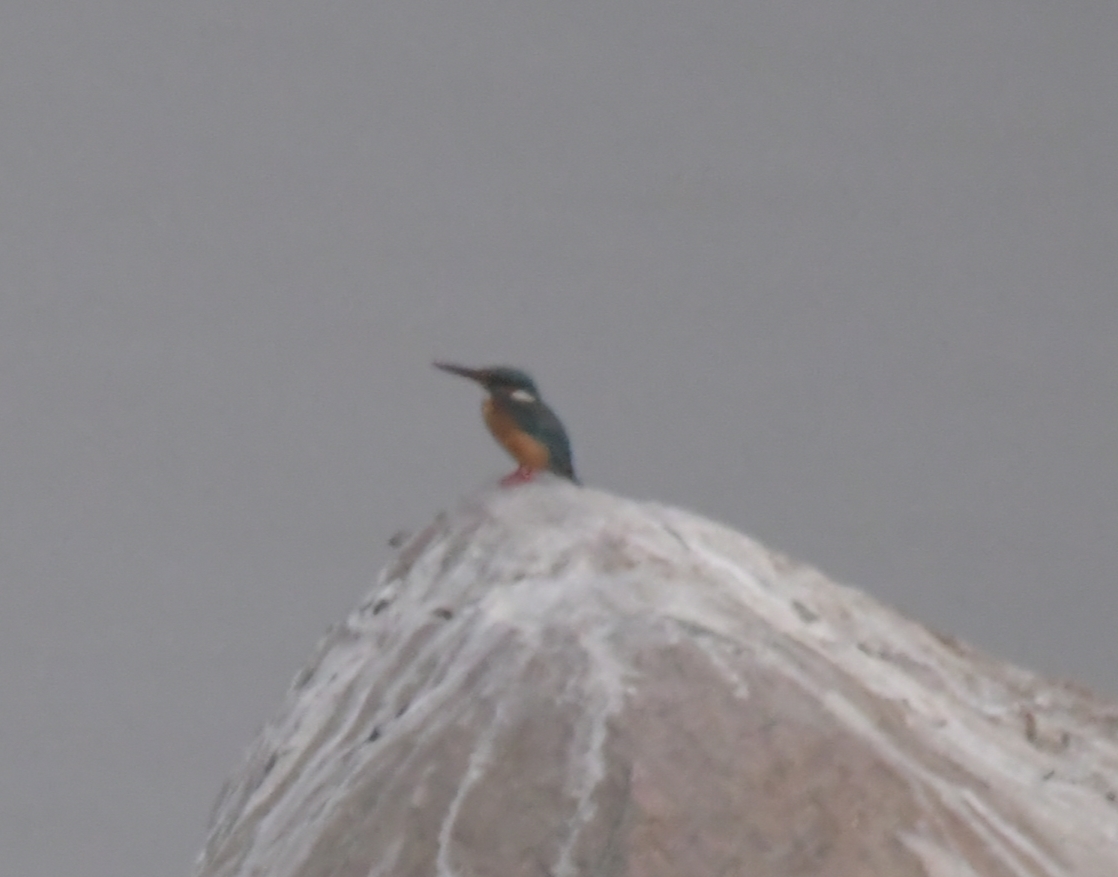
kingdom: Animalia
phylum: Chordata
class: Aves
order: Coraciiformes
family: Alcedinidae
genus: Alcedo
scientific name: Alcedo atthis
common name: Common kingfisher
